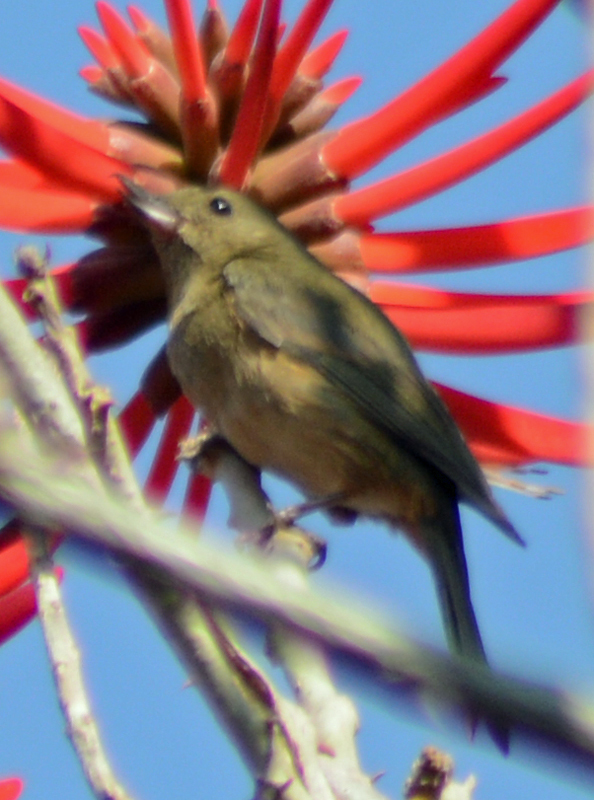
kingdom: Animalia
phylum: Chordata
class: Aves
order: Passeriformes
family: Thraupidae
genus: Diglossa
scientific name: Diglossa baritula
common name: Cinnamon-bellied flowerpiercer
